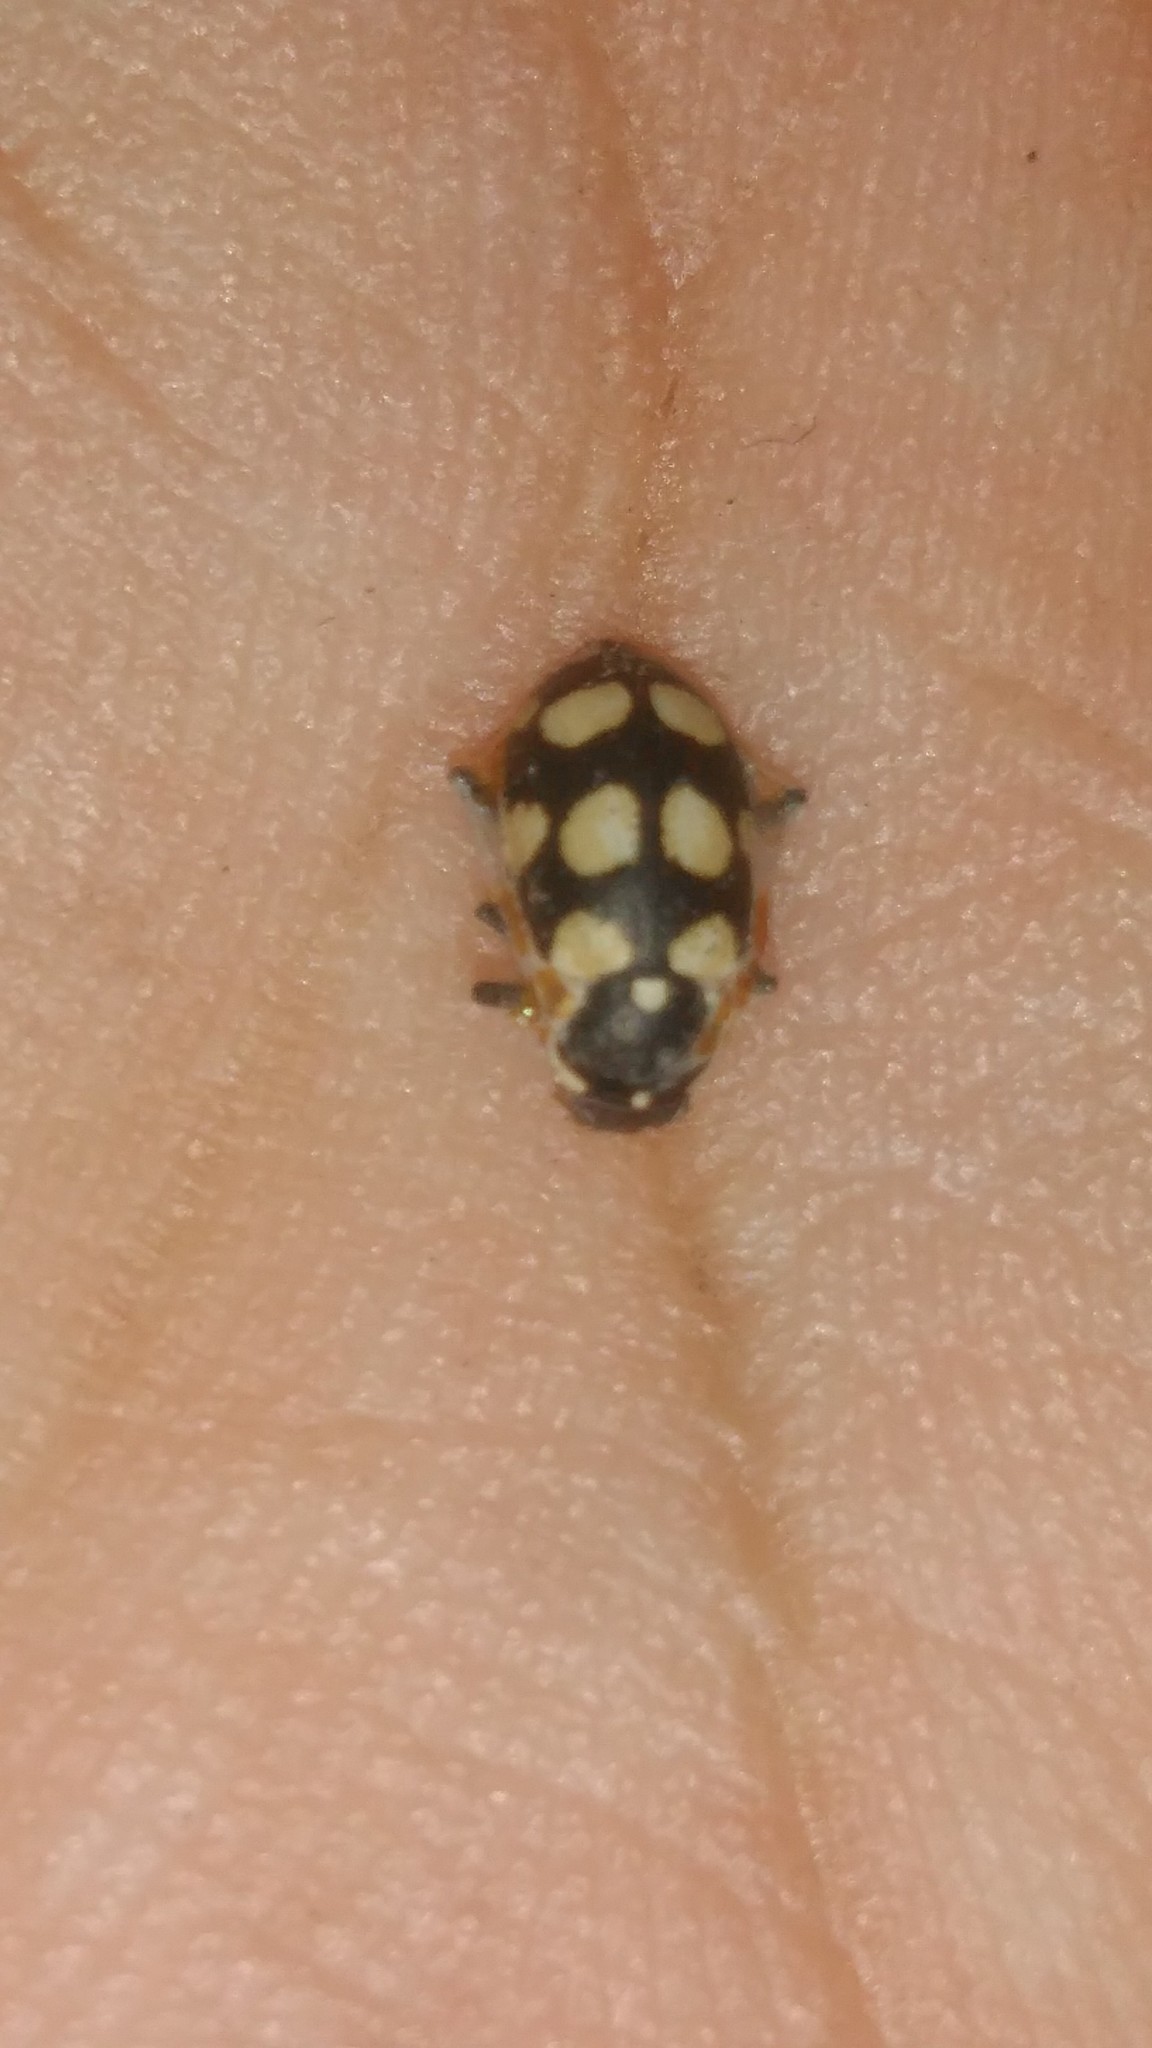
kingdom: Animalia
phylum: Arthropoda
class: Insecta
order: Coleoptera
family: Coccinellidae
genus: Eriopis
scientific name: Eriopis connexa
